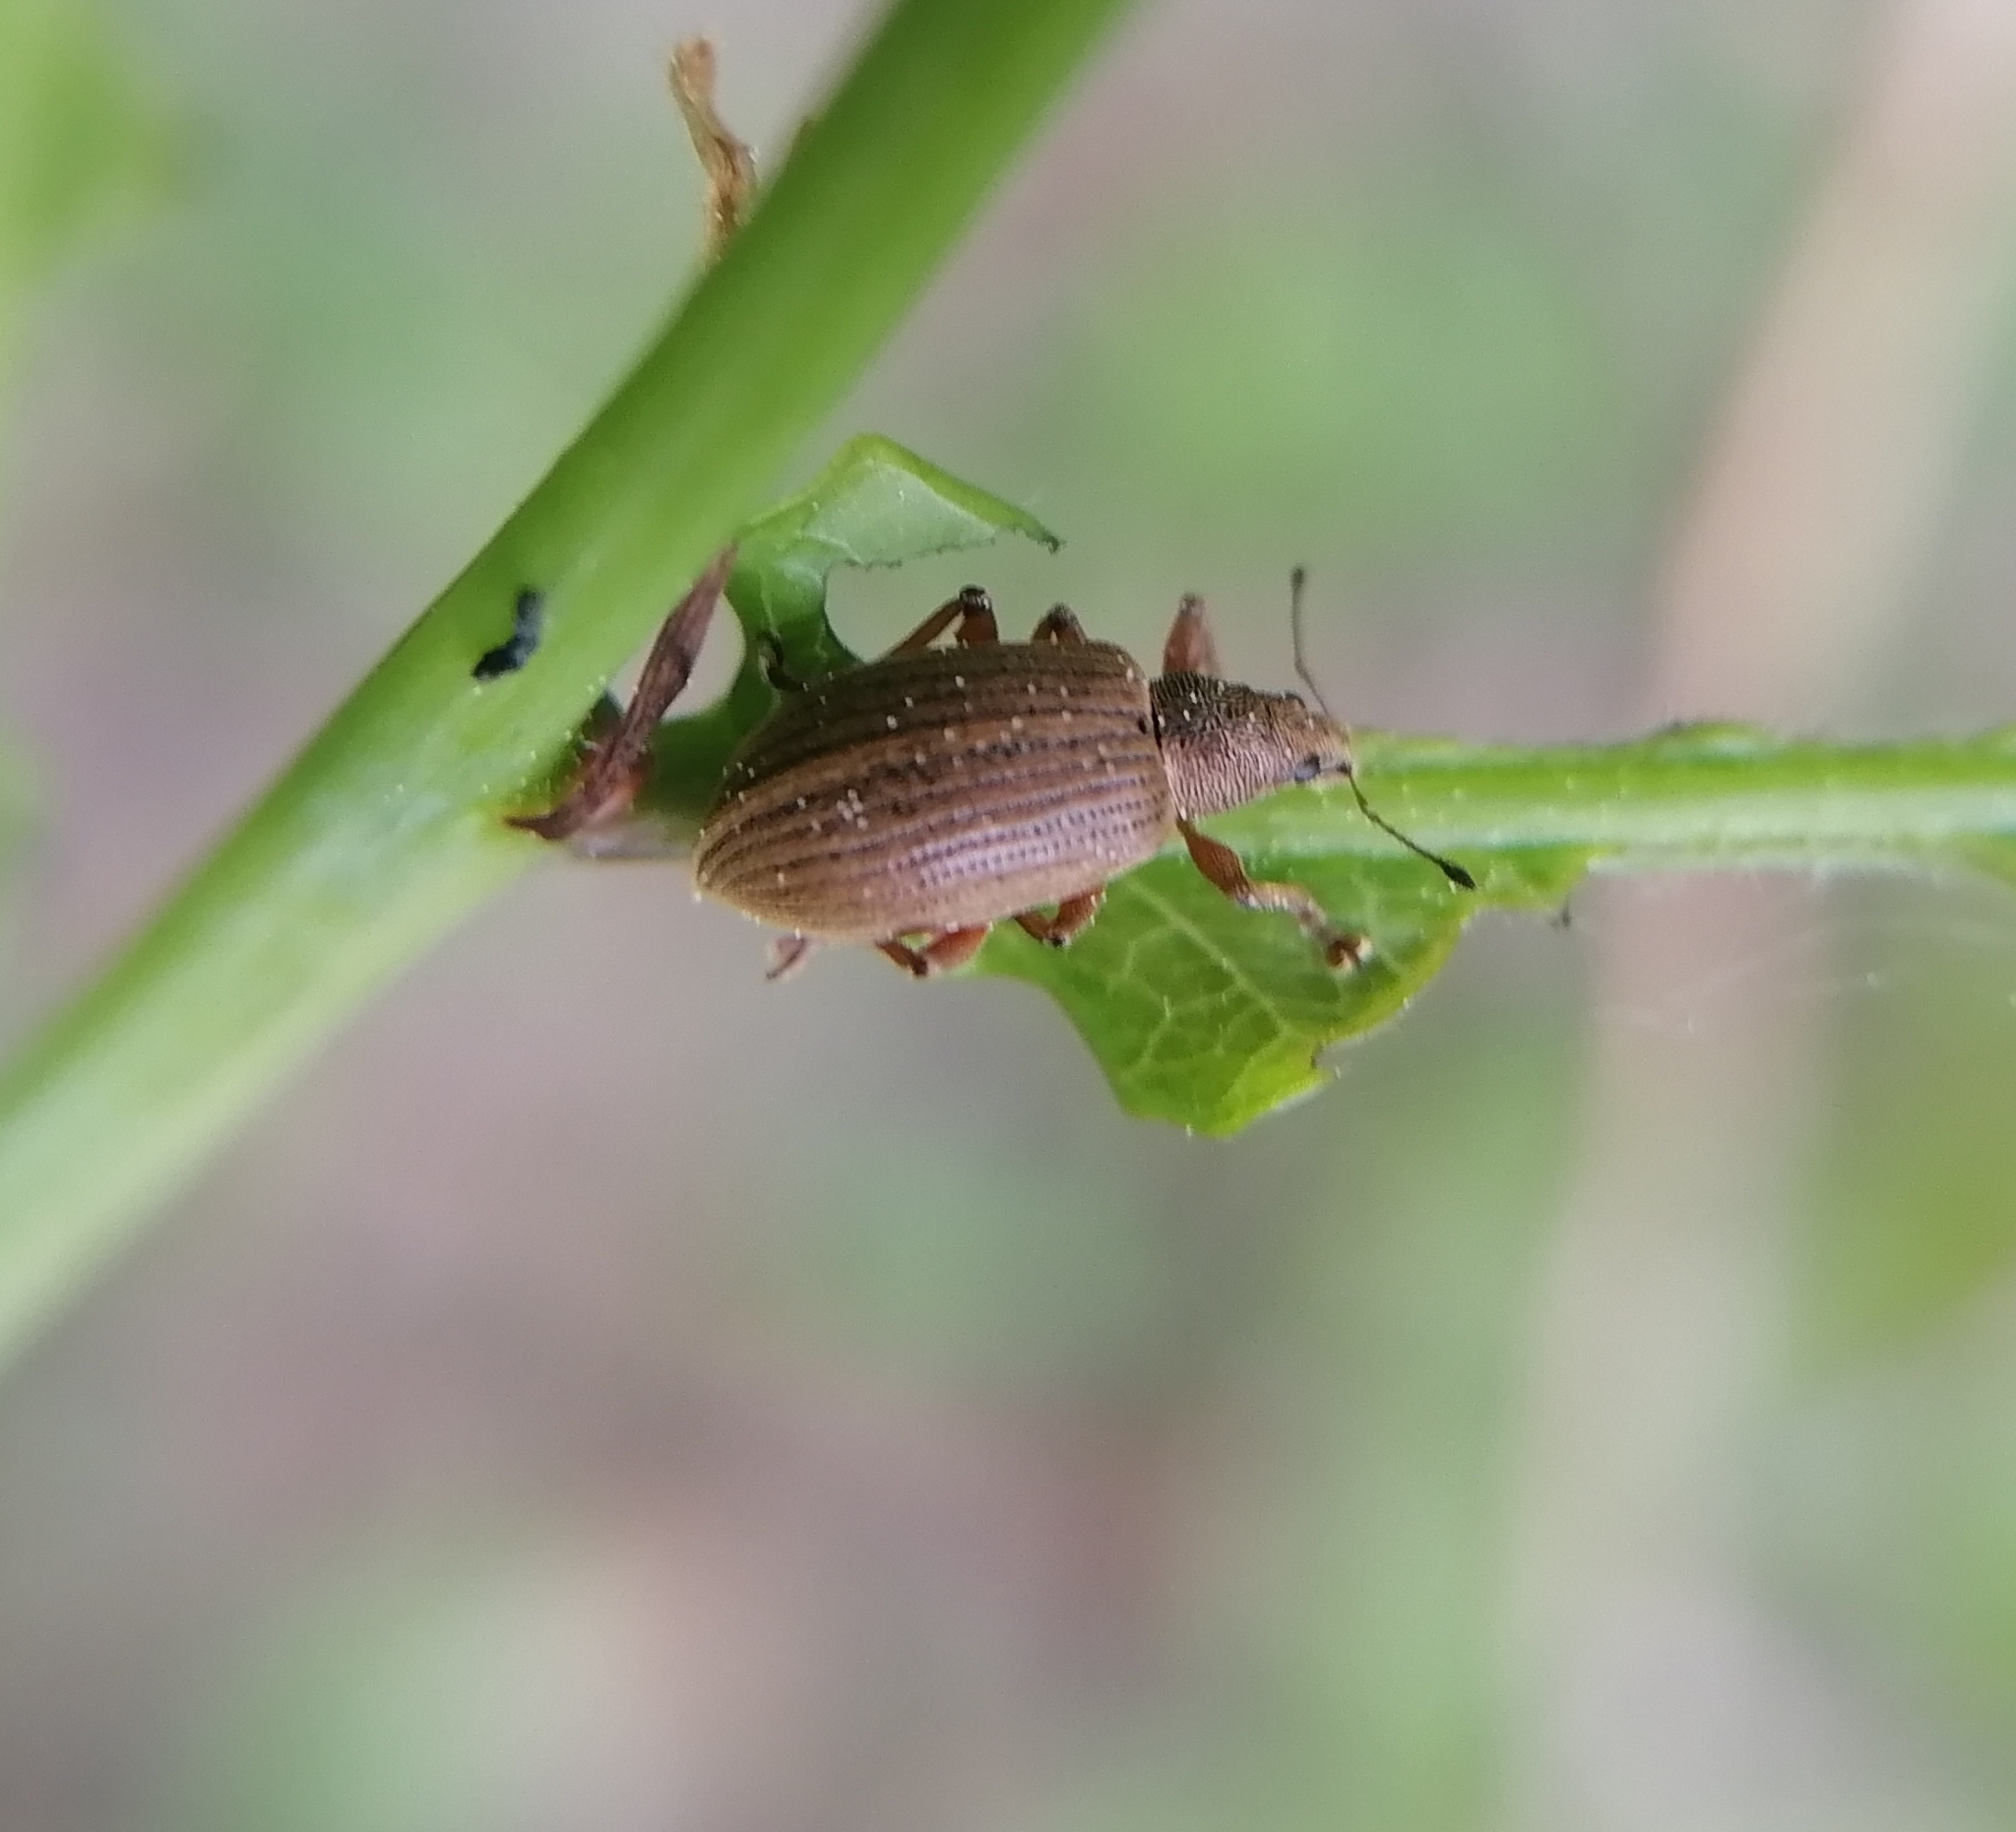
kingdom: Animalia
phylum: Arthropoda
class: Insecta
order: Coleoptera
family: Curculionidae
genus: Polydrusus
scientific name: Polydrusus mollis
